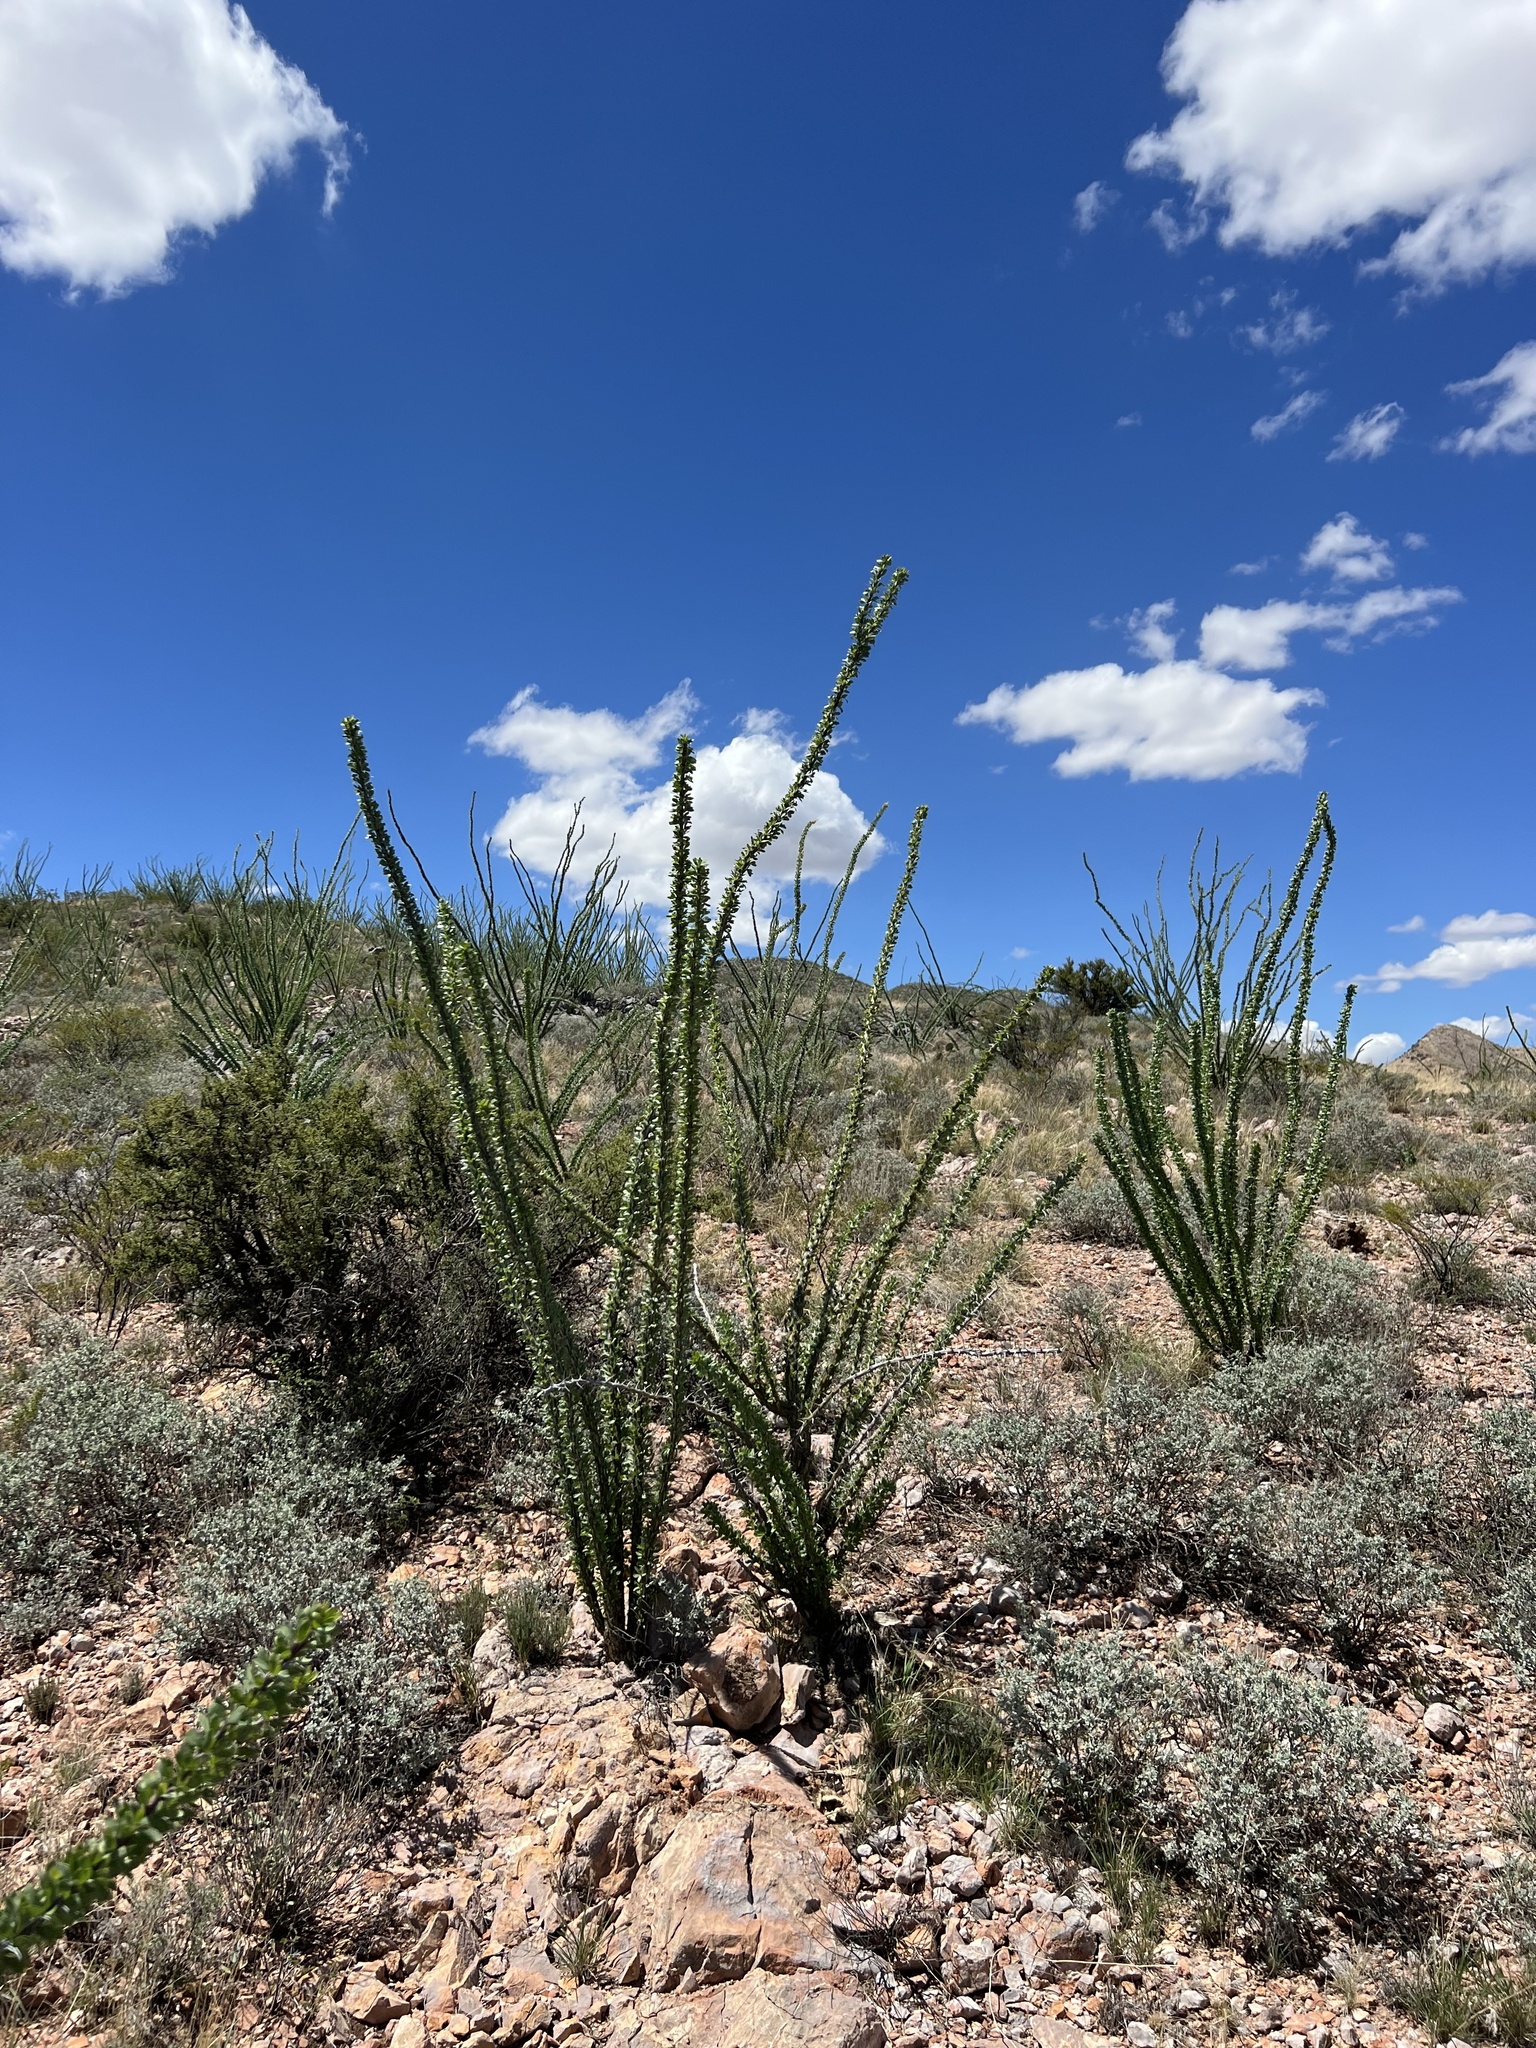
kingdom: Plantae
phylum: Tracheophyta
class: Magnoliopsida
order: Ericales
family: Fouquieriaceae
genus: Fouquieria
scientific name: Fouquieria splendens
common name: Vine-cactus
